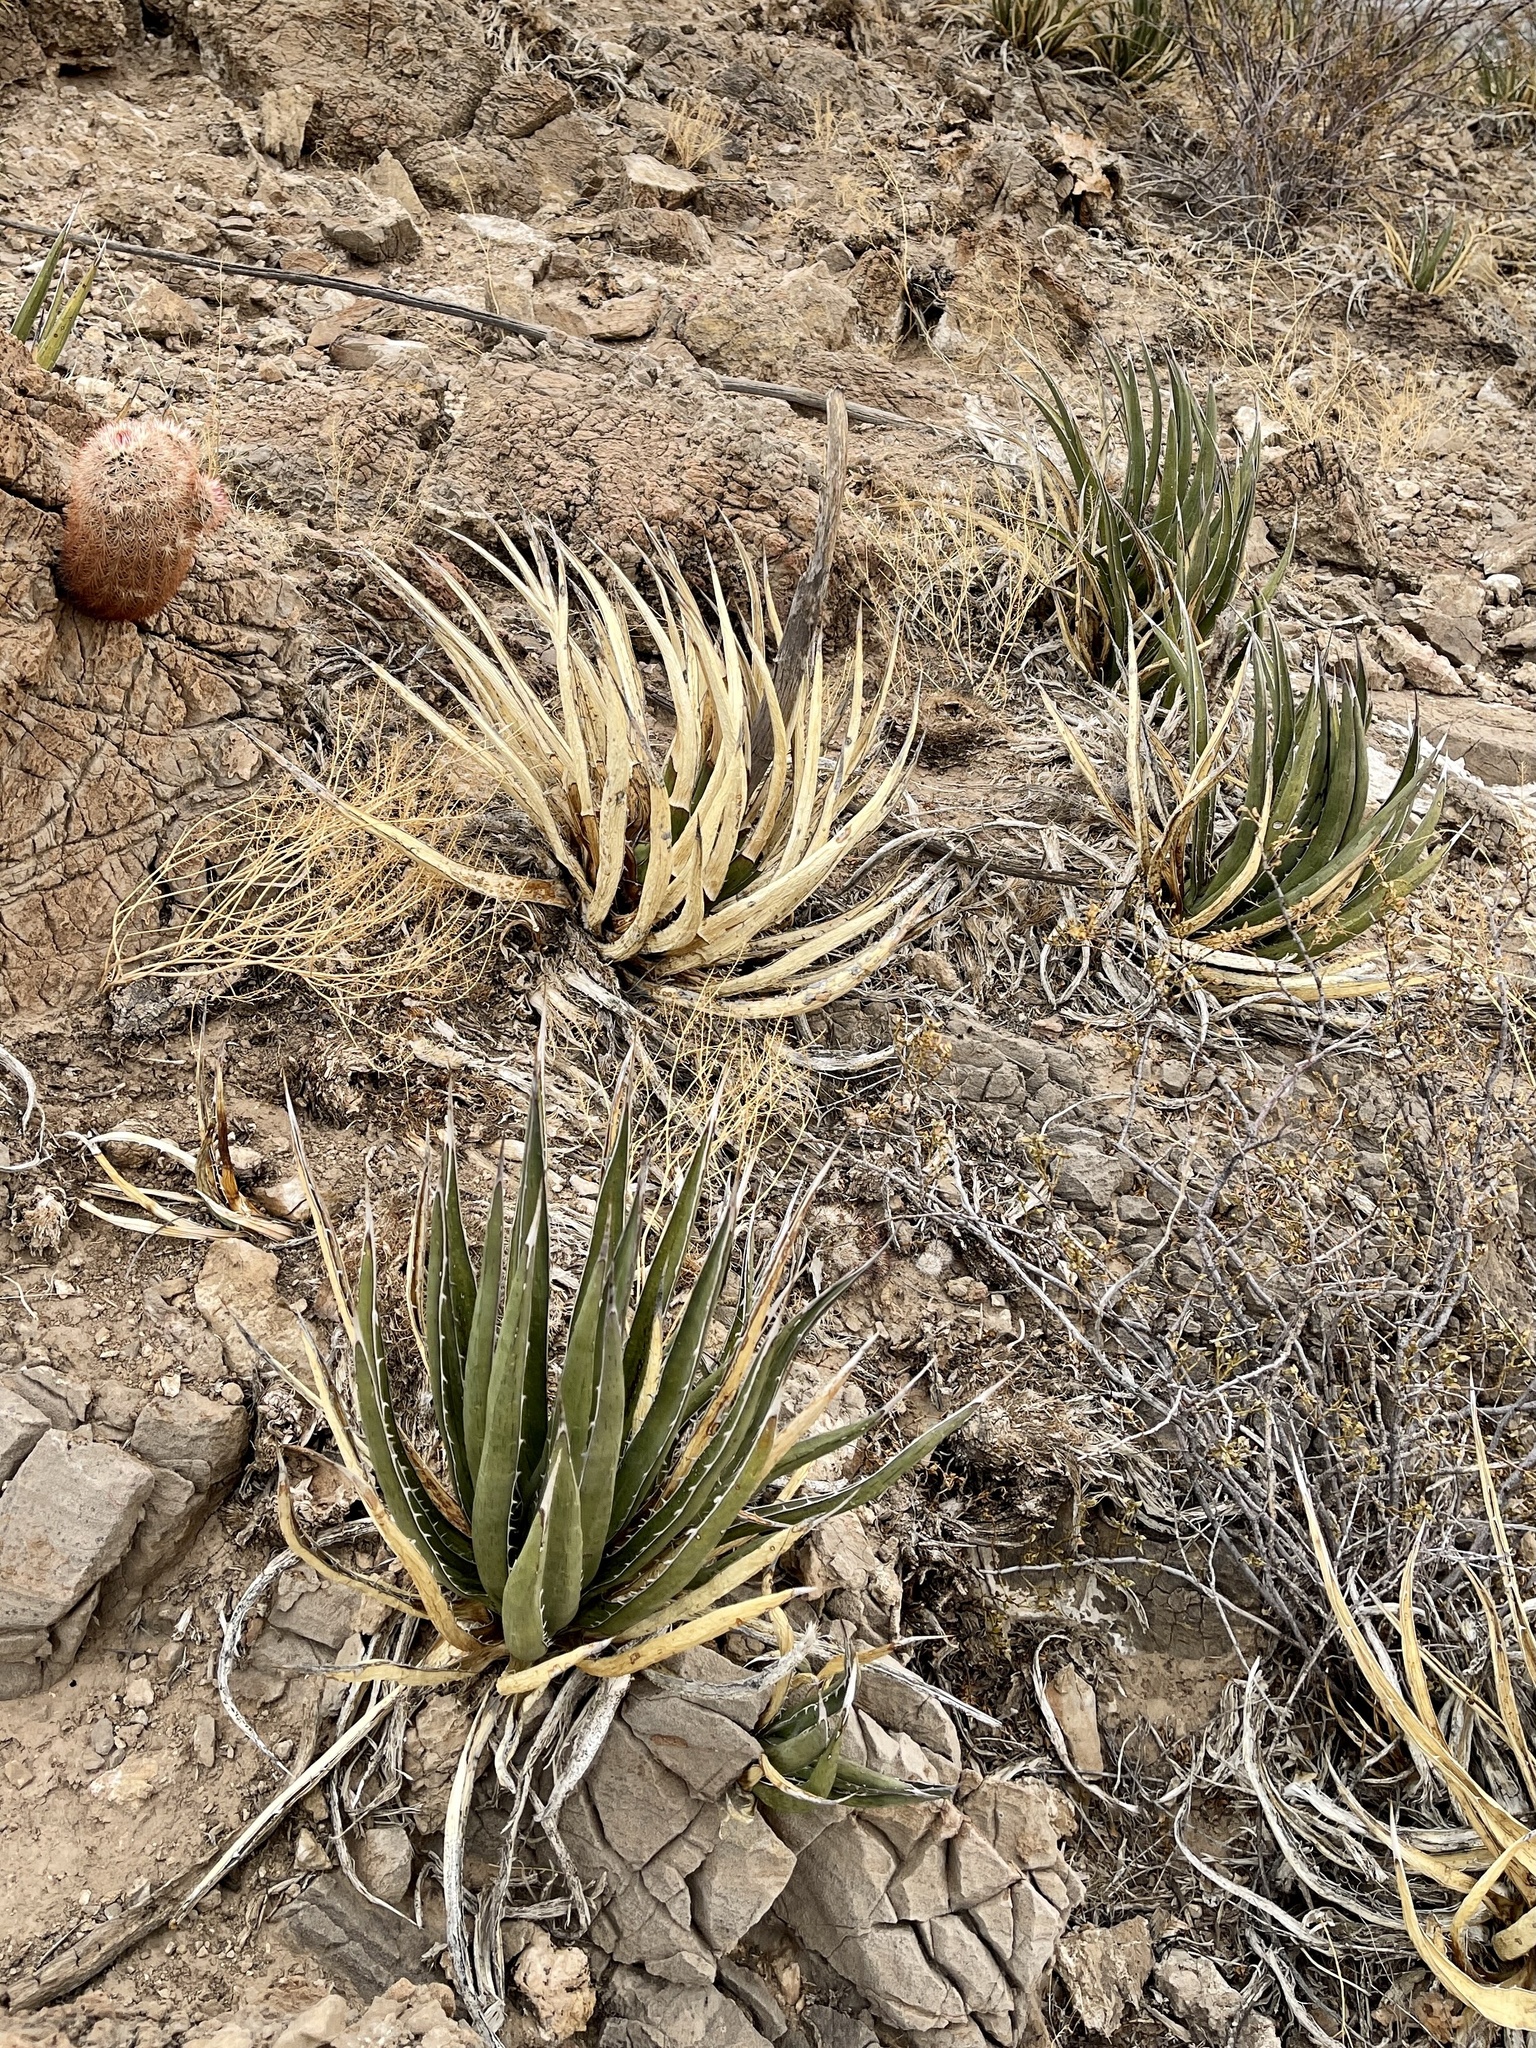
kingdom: Plantae
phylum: Tracheophyta
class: Liliopsida
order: Asparagales
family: Asparagaceae
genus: Agave
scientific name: Agave lechuguilla
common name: Lecheguilla agave
